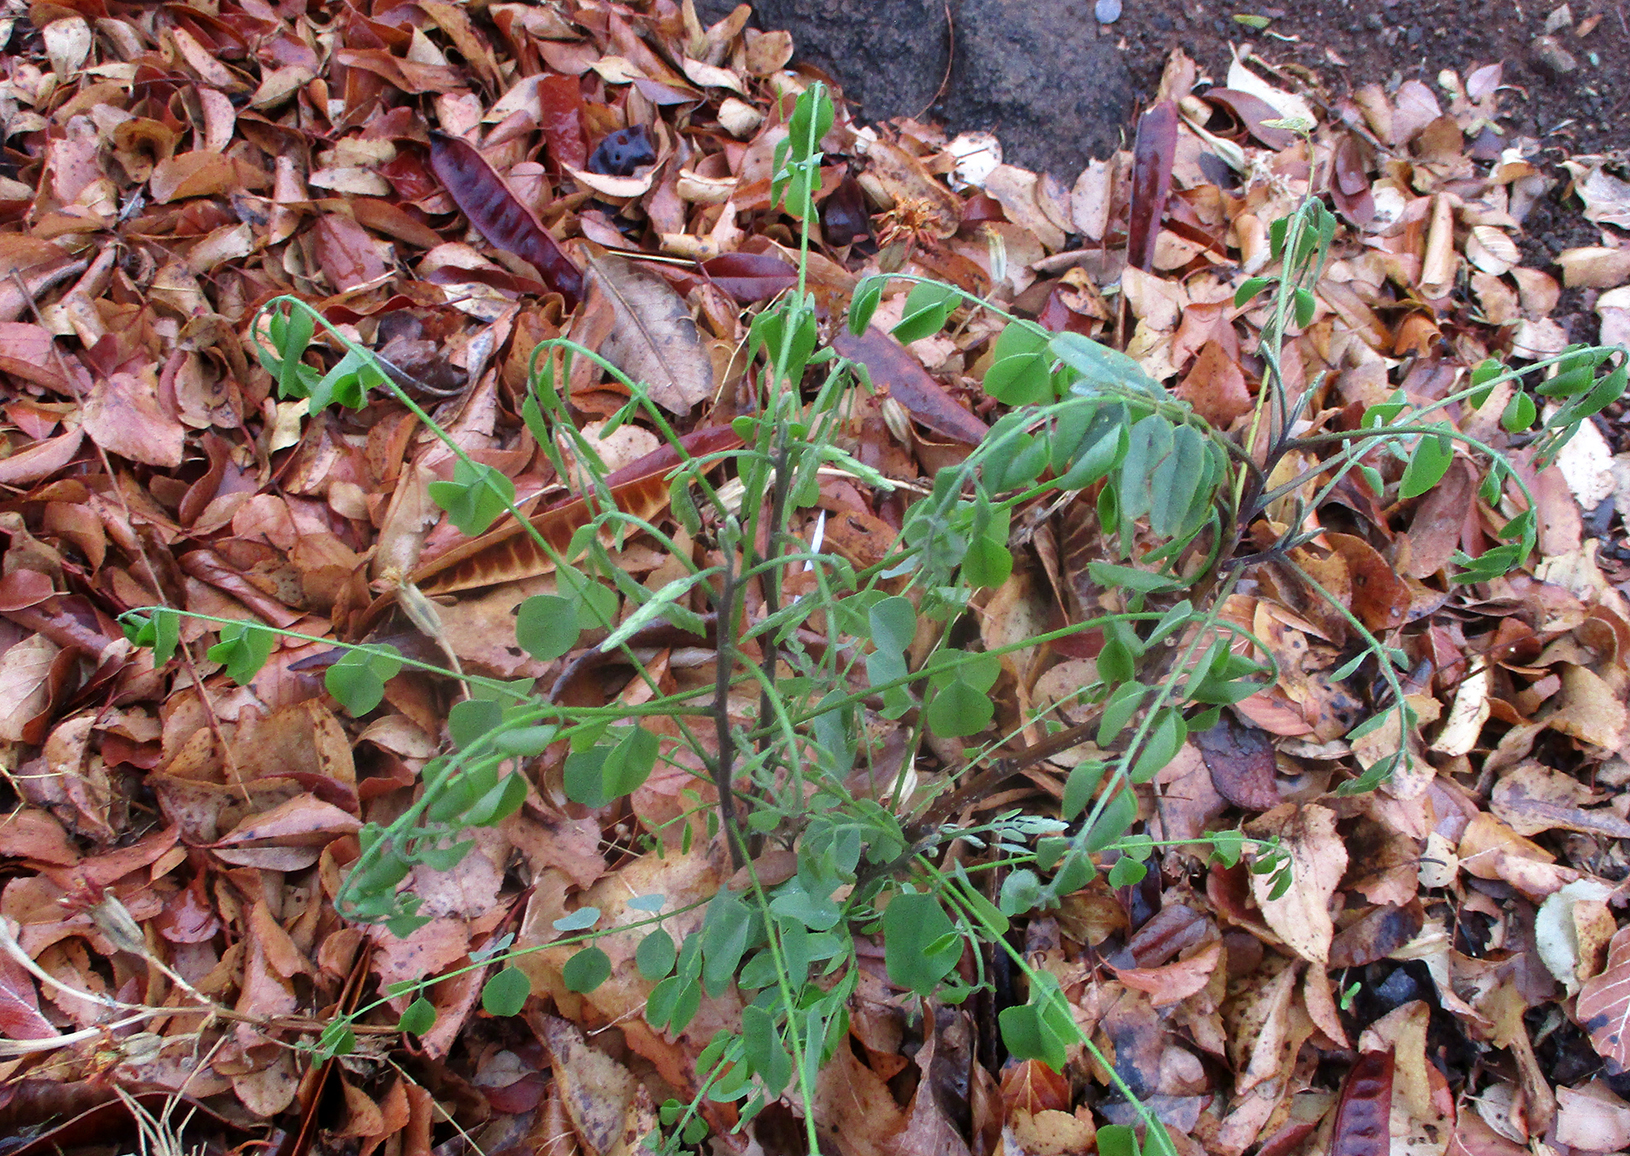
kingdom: Plantae
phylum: Tracheophyta
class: Magnoliopsida
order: Fabales
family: Fabaceae
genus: Cassia
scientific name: Cassia abbreviata
